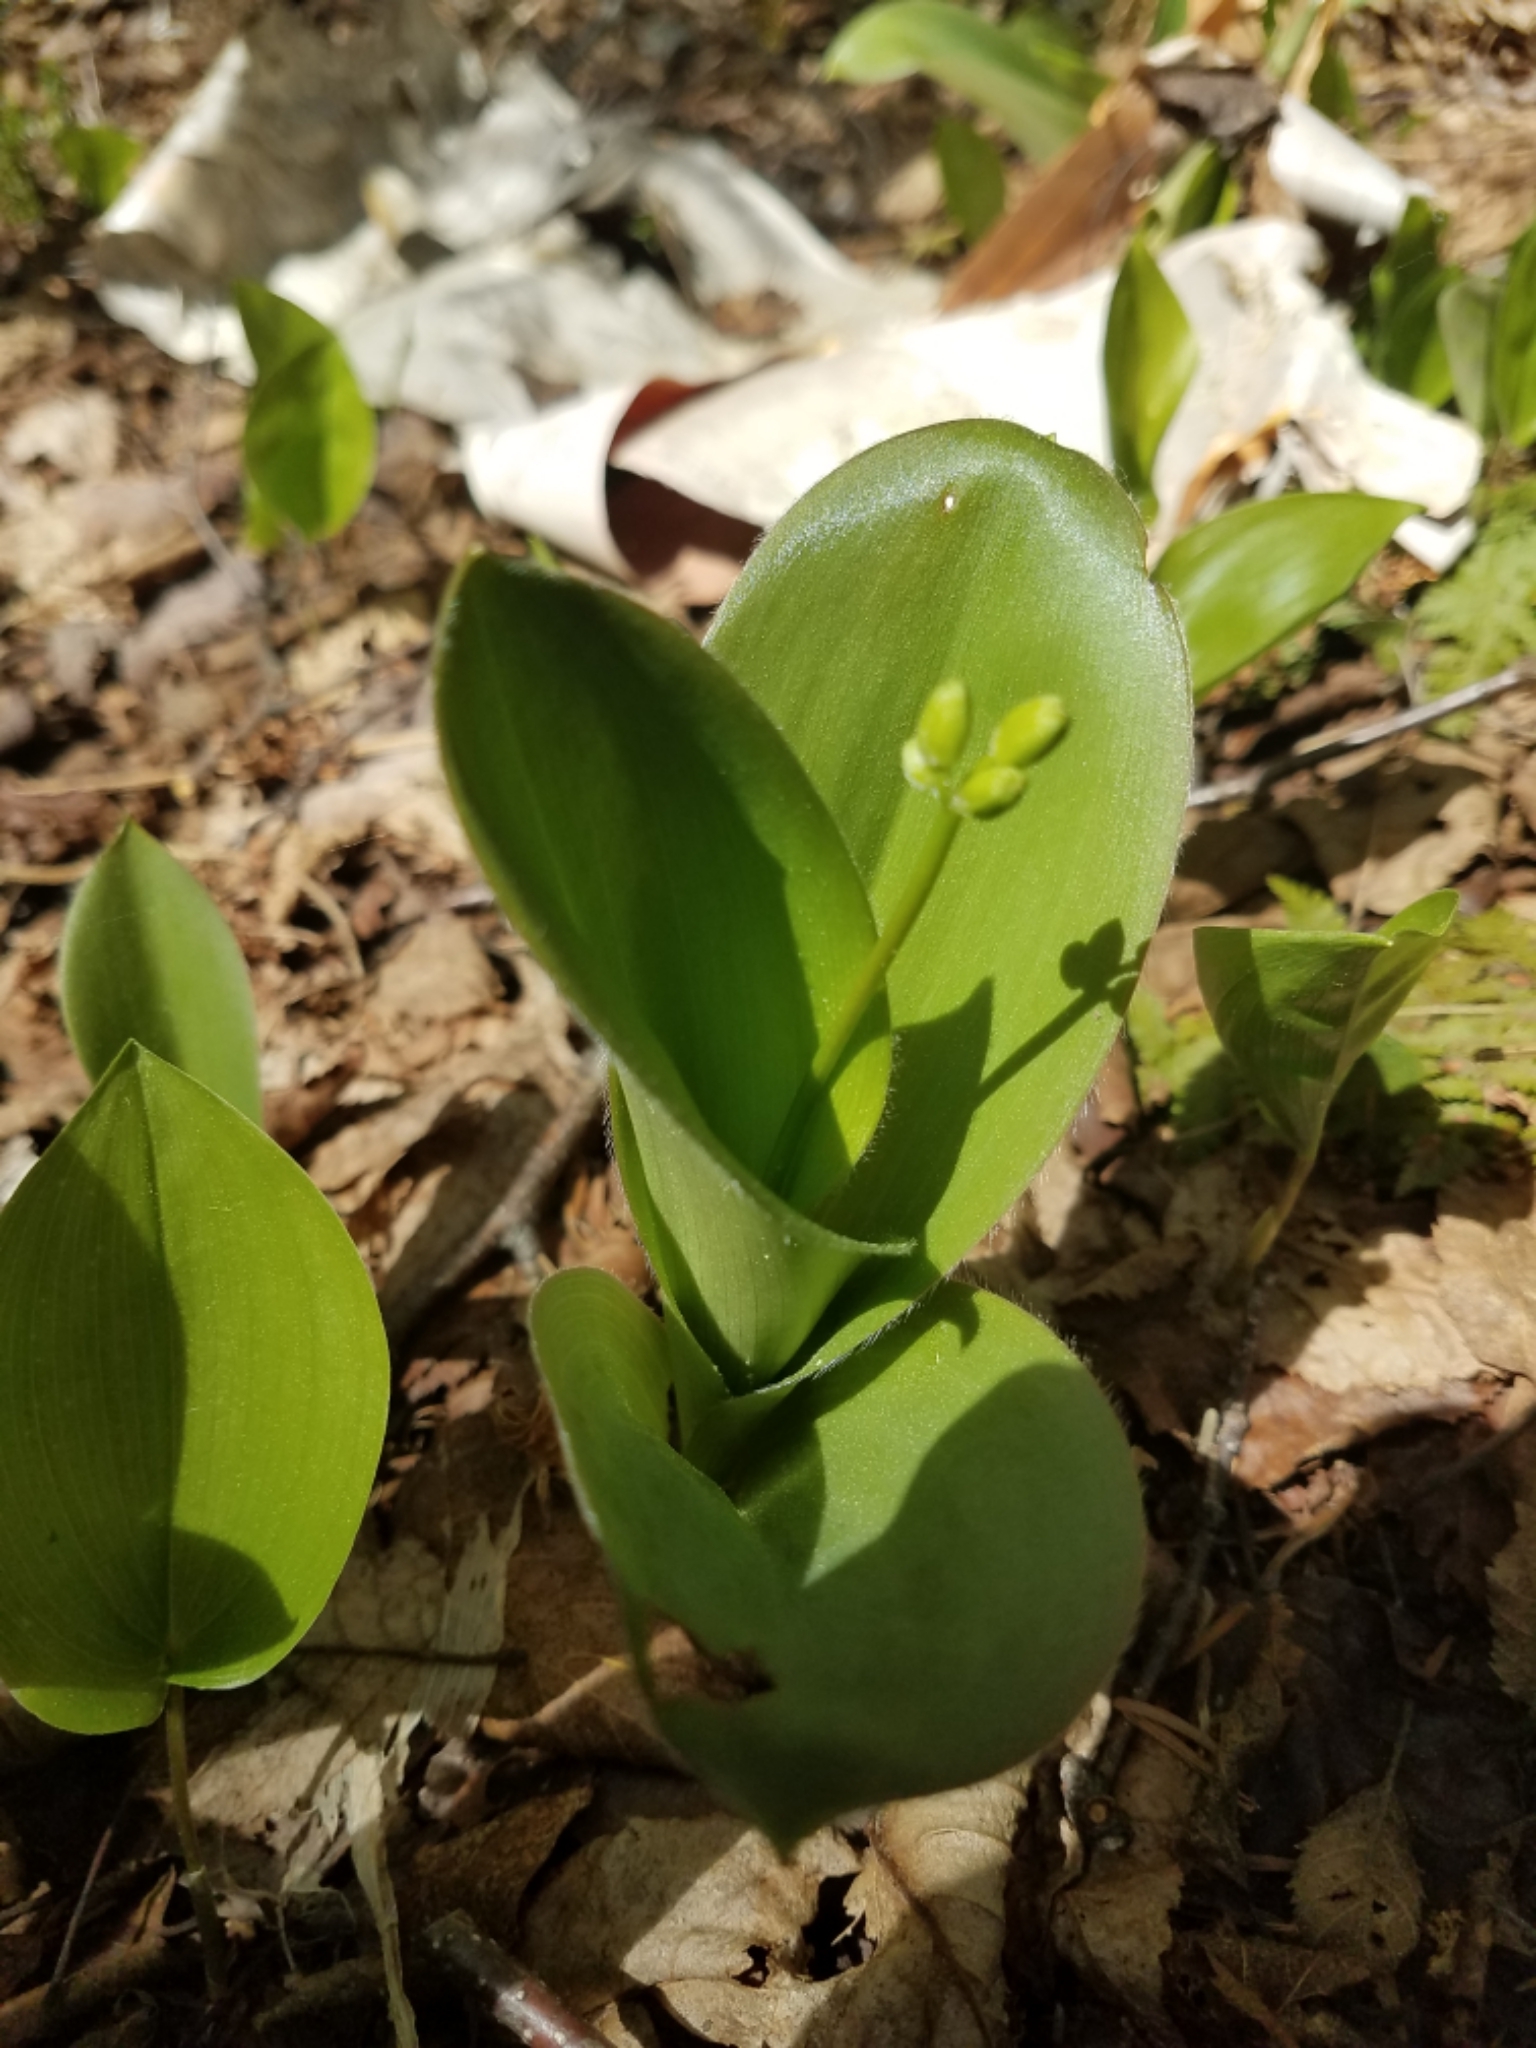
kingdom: Plantae
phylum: Tracheophyta
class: Liliopsida
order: Liliales
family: Liliaceae
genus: Clintonia
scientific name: Clintonia borealis
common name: Yellow clintonia
